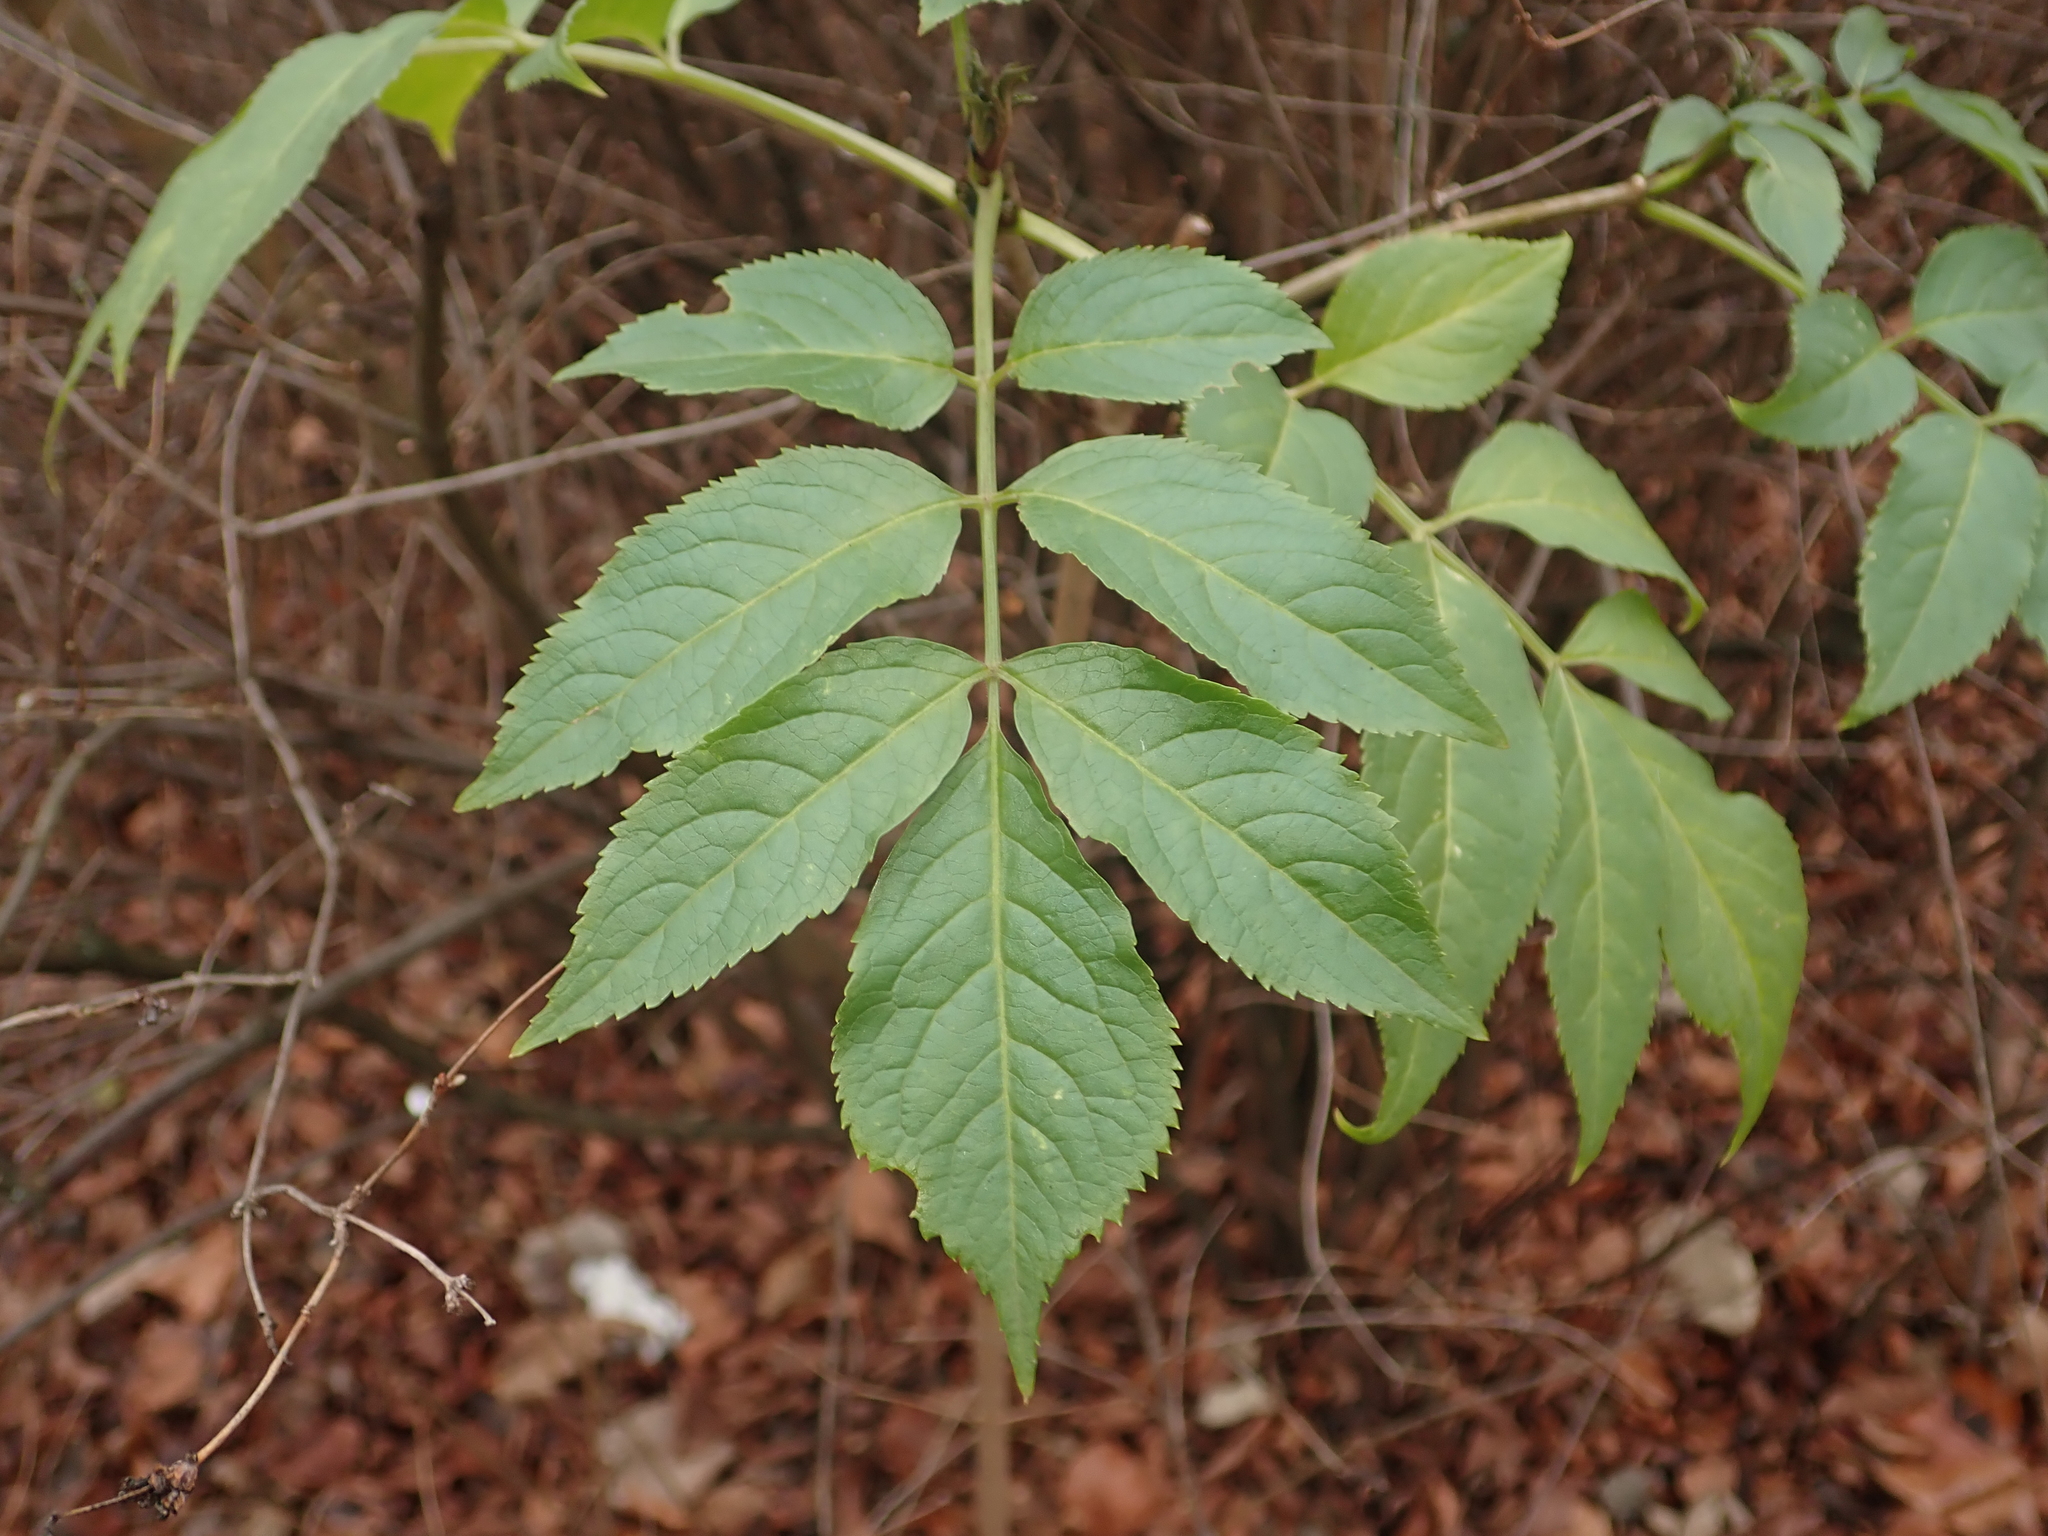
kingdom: Plantae
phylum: Tracheophyta
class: Magnoliopsida
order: Dipsacales
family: Viburnaceae
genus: Sambucus
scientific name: Sambucus nigra
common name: Elder
